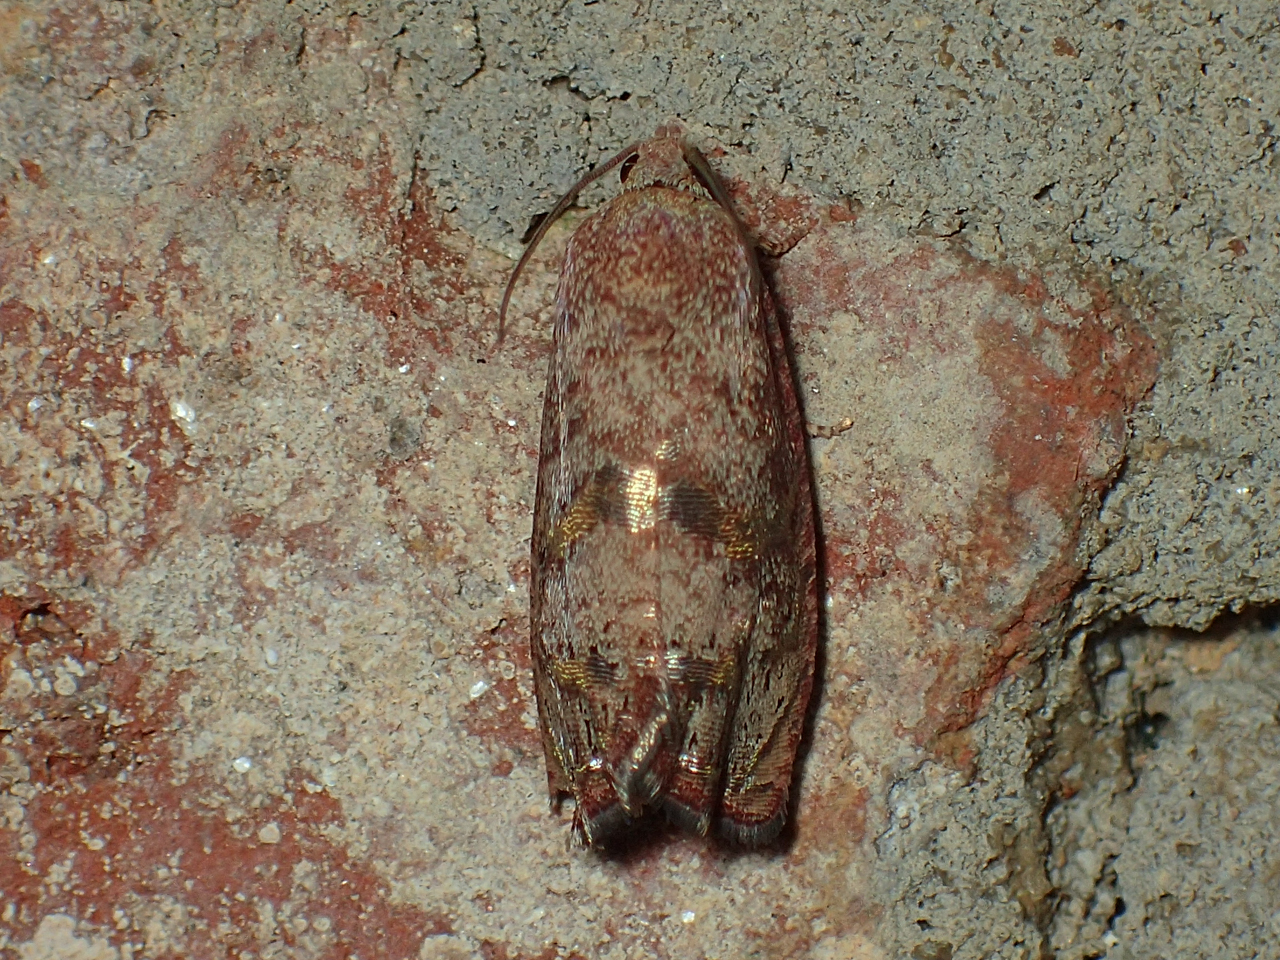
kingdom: Animalia
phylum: Arthropoda
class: Insecta
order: Lepidoptera
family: Tortricidae
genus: Cydia
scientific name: Cydia latiferreana
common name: Filbertworm moth
